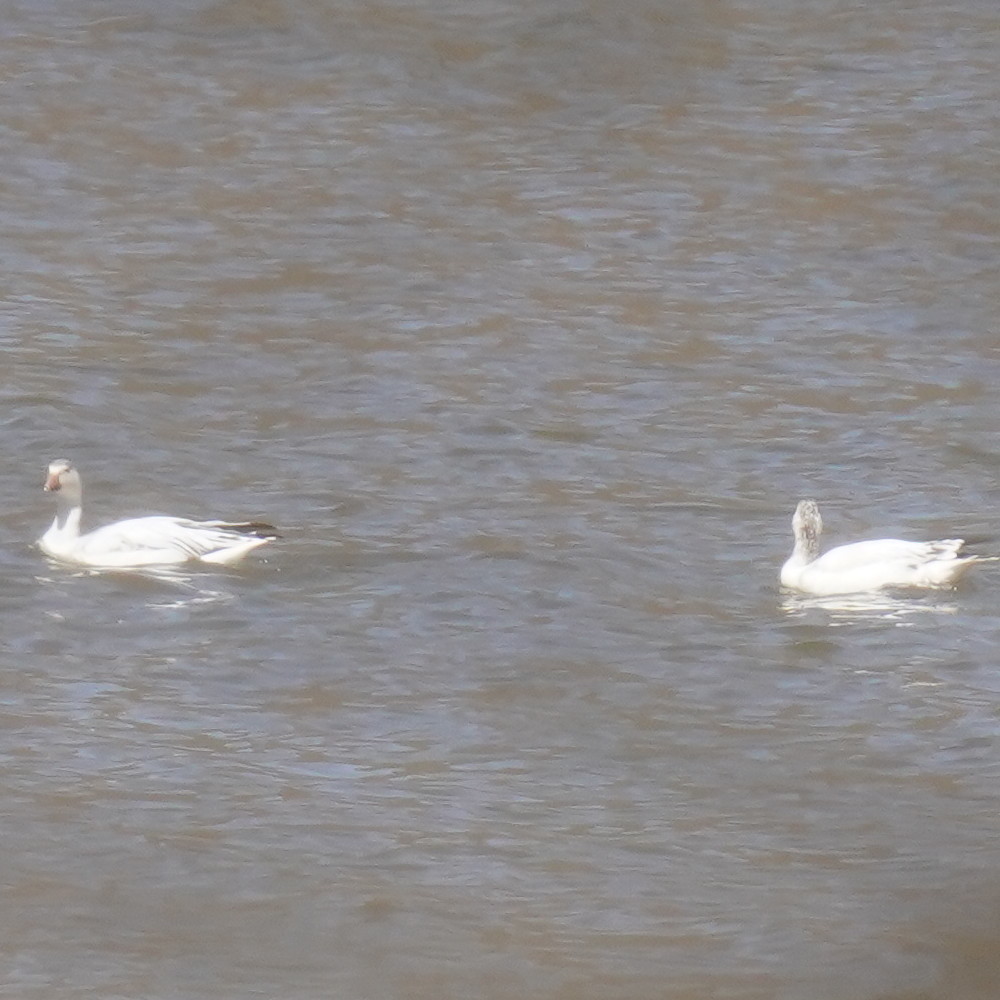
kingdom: Animalia
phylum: Chordata
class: Aves
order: Anseriformes
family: Anatidae
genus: Anser
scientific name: Anser caerulescens
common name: Snow goose
